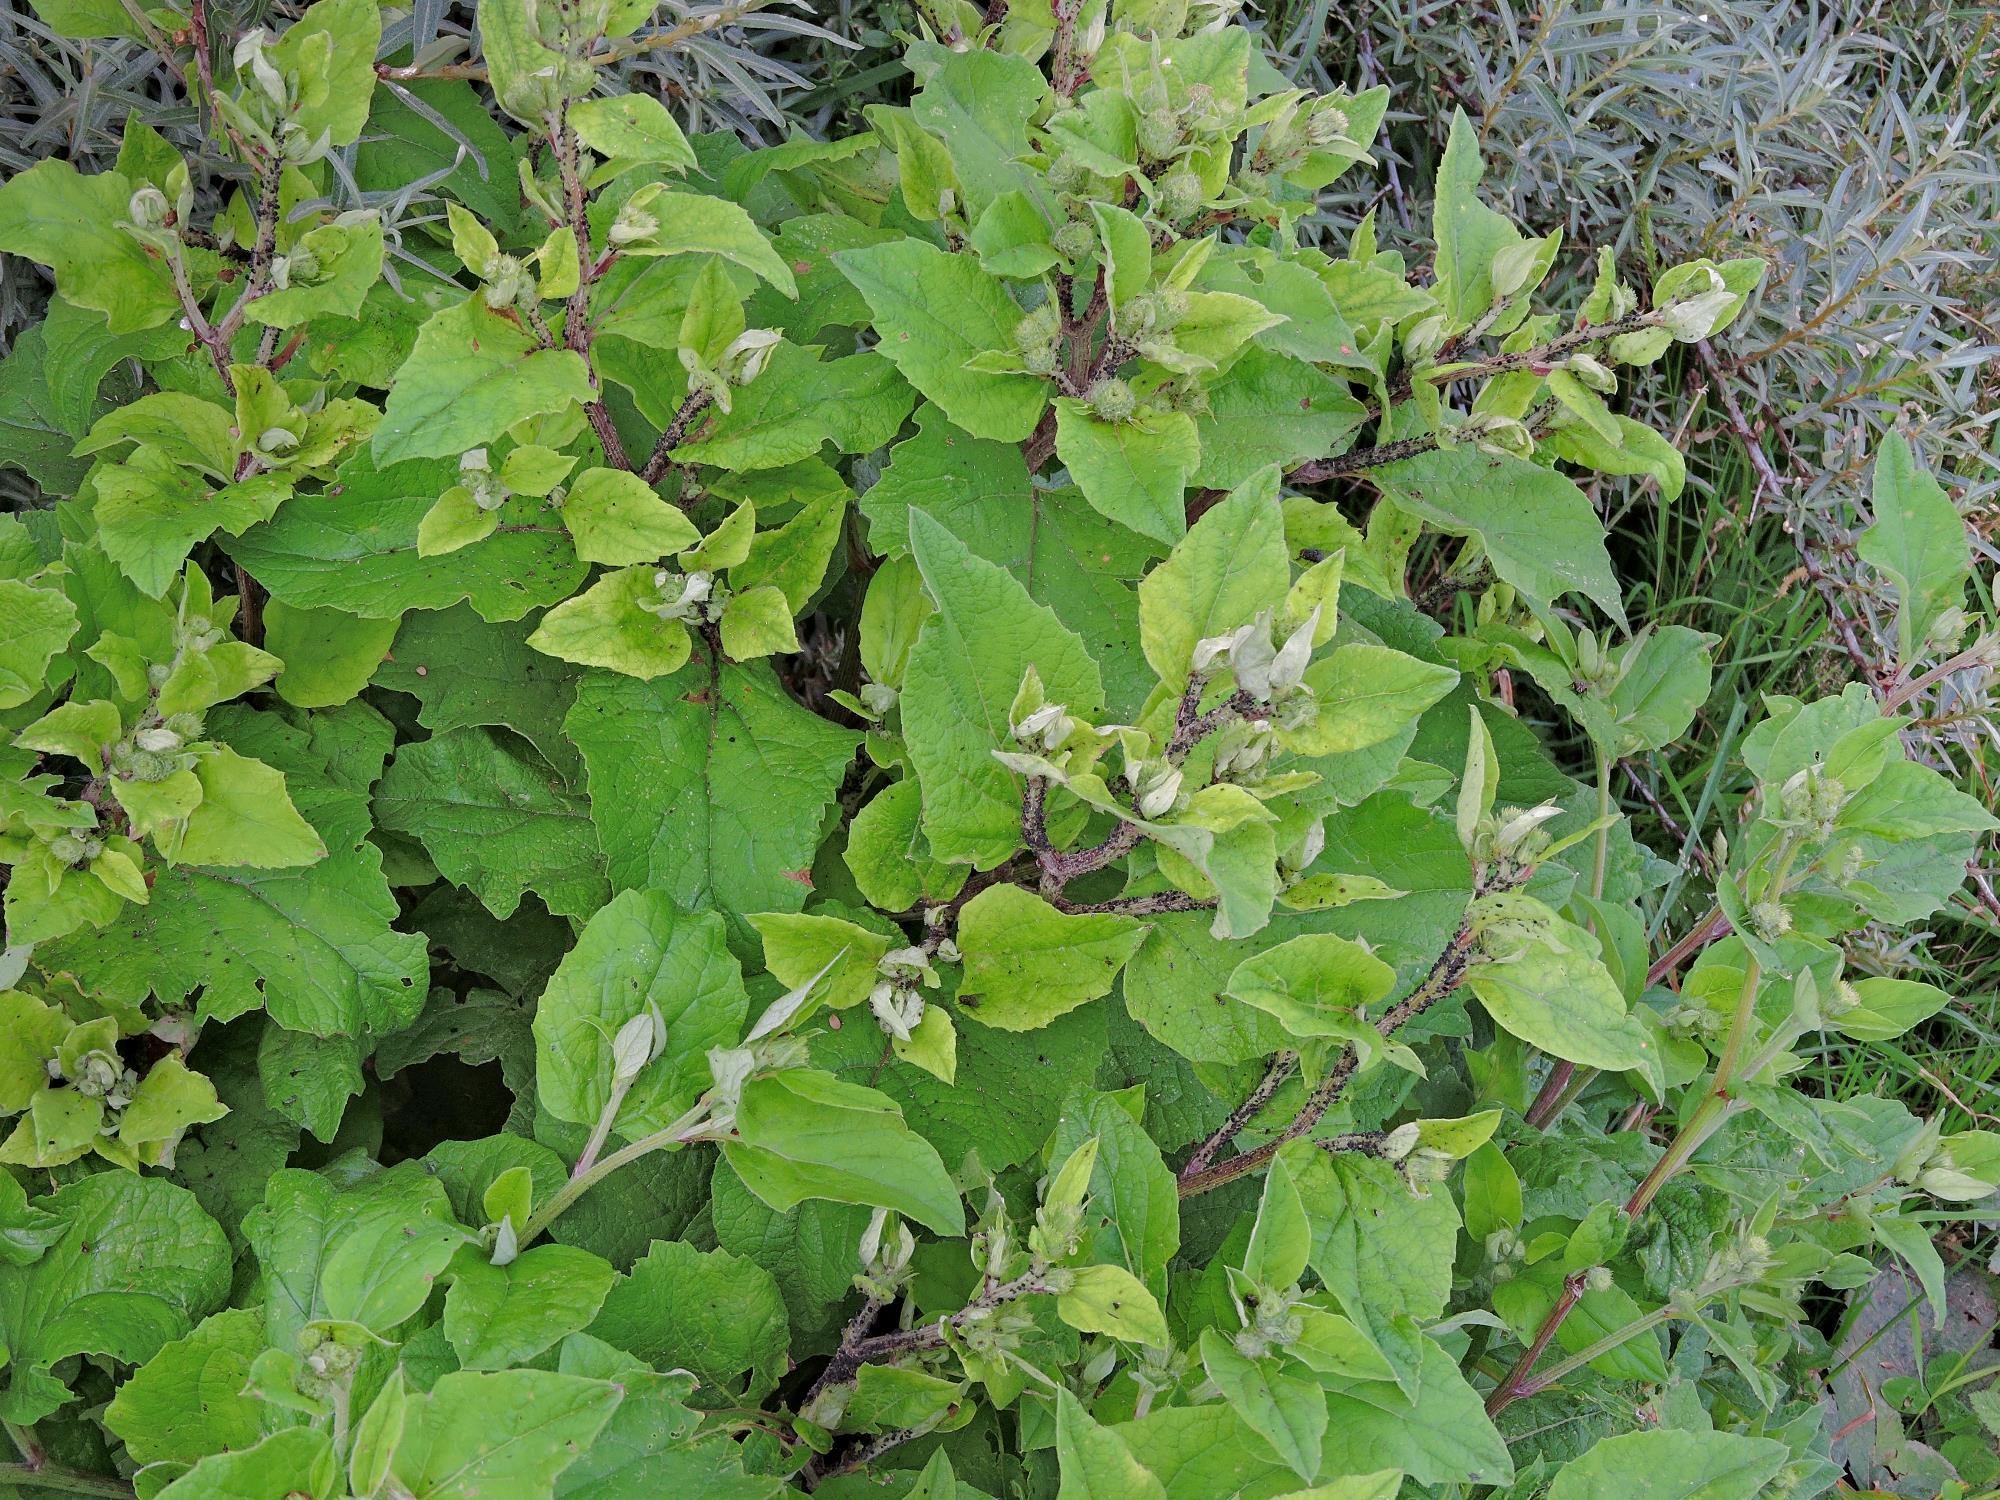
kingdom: Plantae
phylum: Tracheophyta
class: Magnoliopsida
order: Asterales
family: Asteraceae
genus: Arctium
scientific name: Arctium minus
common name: Lesser burdock
